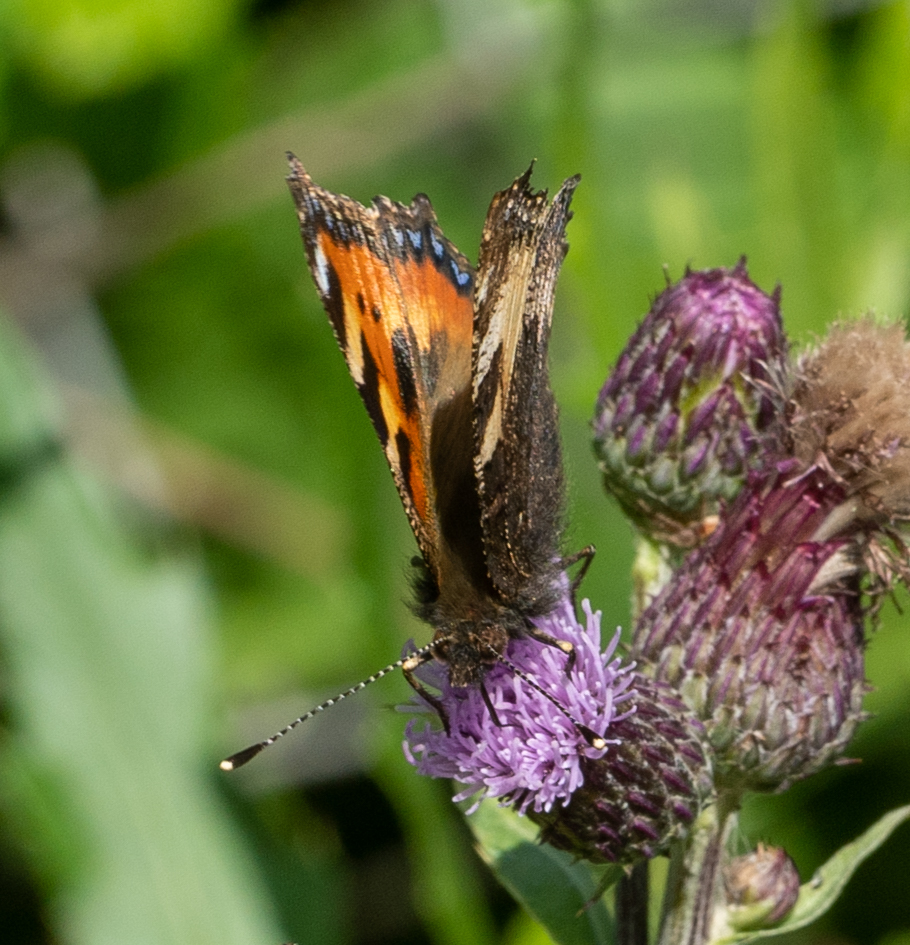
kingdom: Animalia
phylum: Arthropoda
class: Insecta
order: Lepidoptera
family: Nymphalidae
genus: Aglais
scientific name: Aglais urticae
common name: Small tortoiseshell
